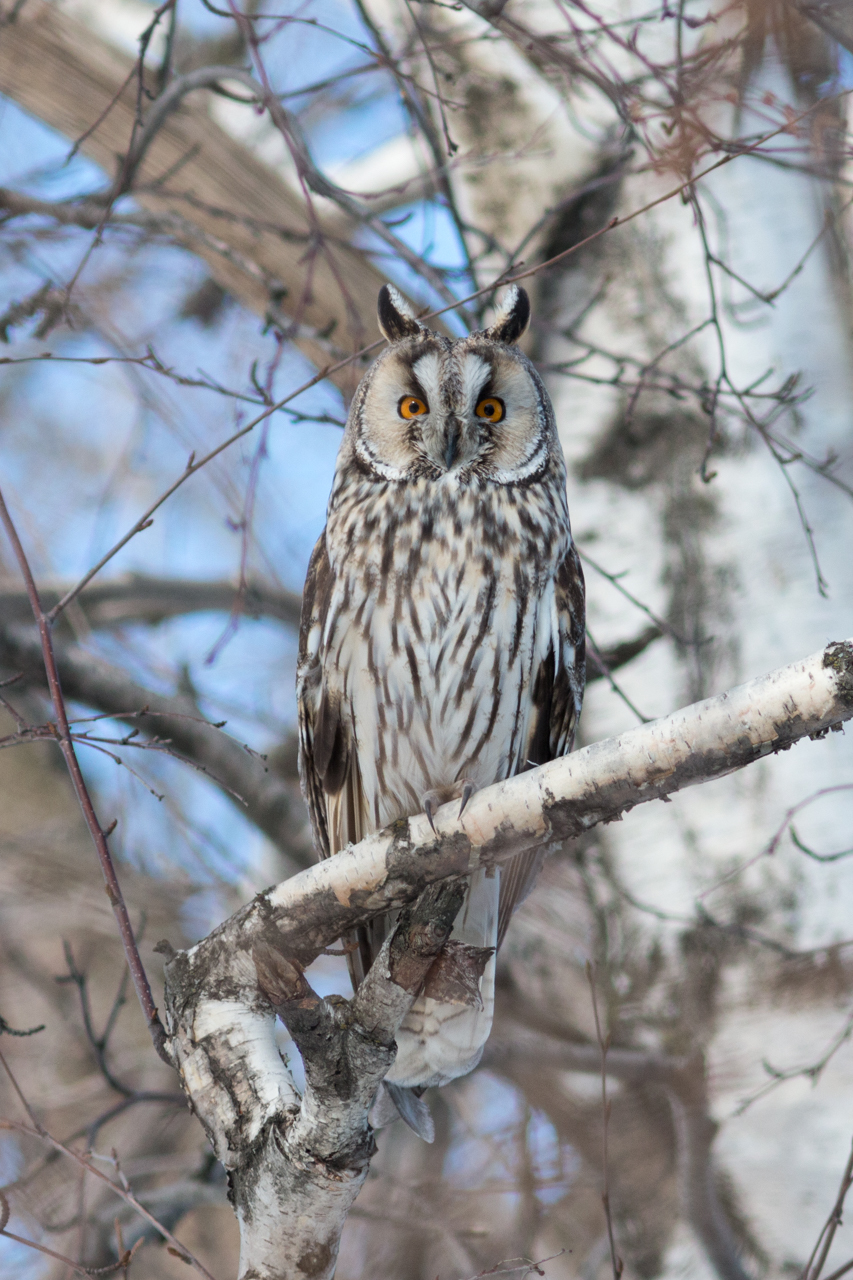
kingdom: Animalia
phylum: Chordata
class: Aves
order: Strigiformes
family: Strigidae
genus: Asio
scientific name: Asio otus
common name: Long-eared owl
